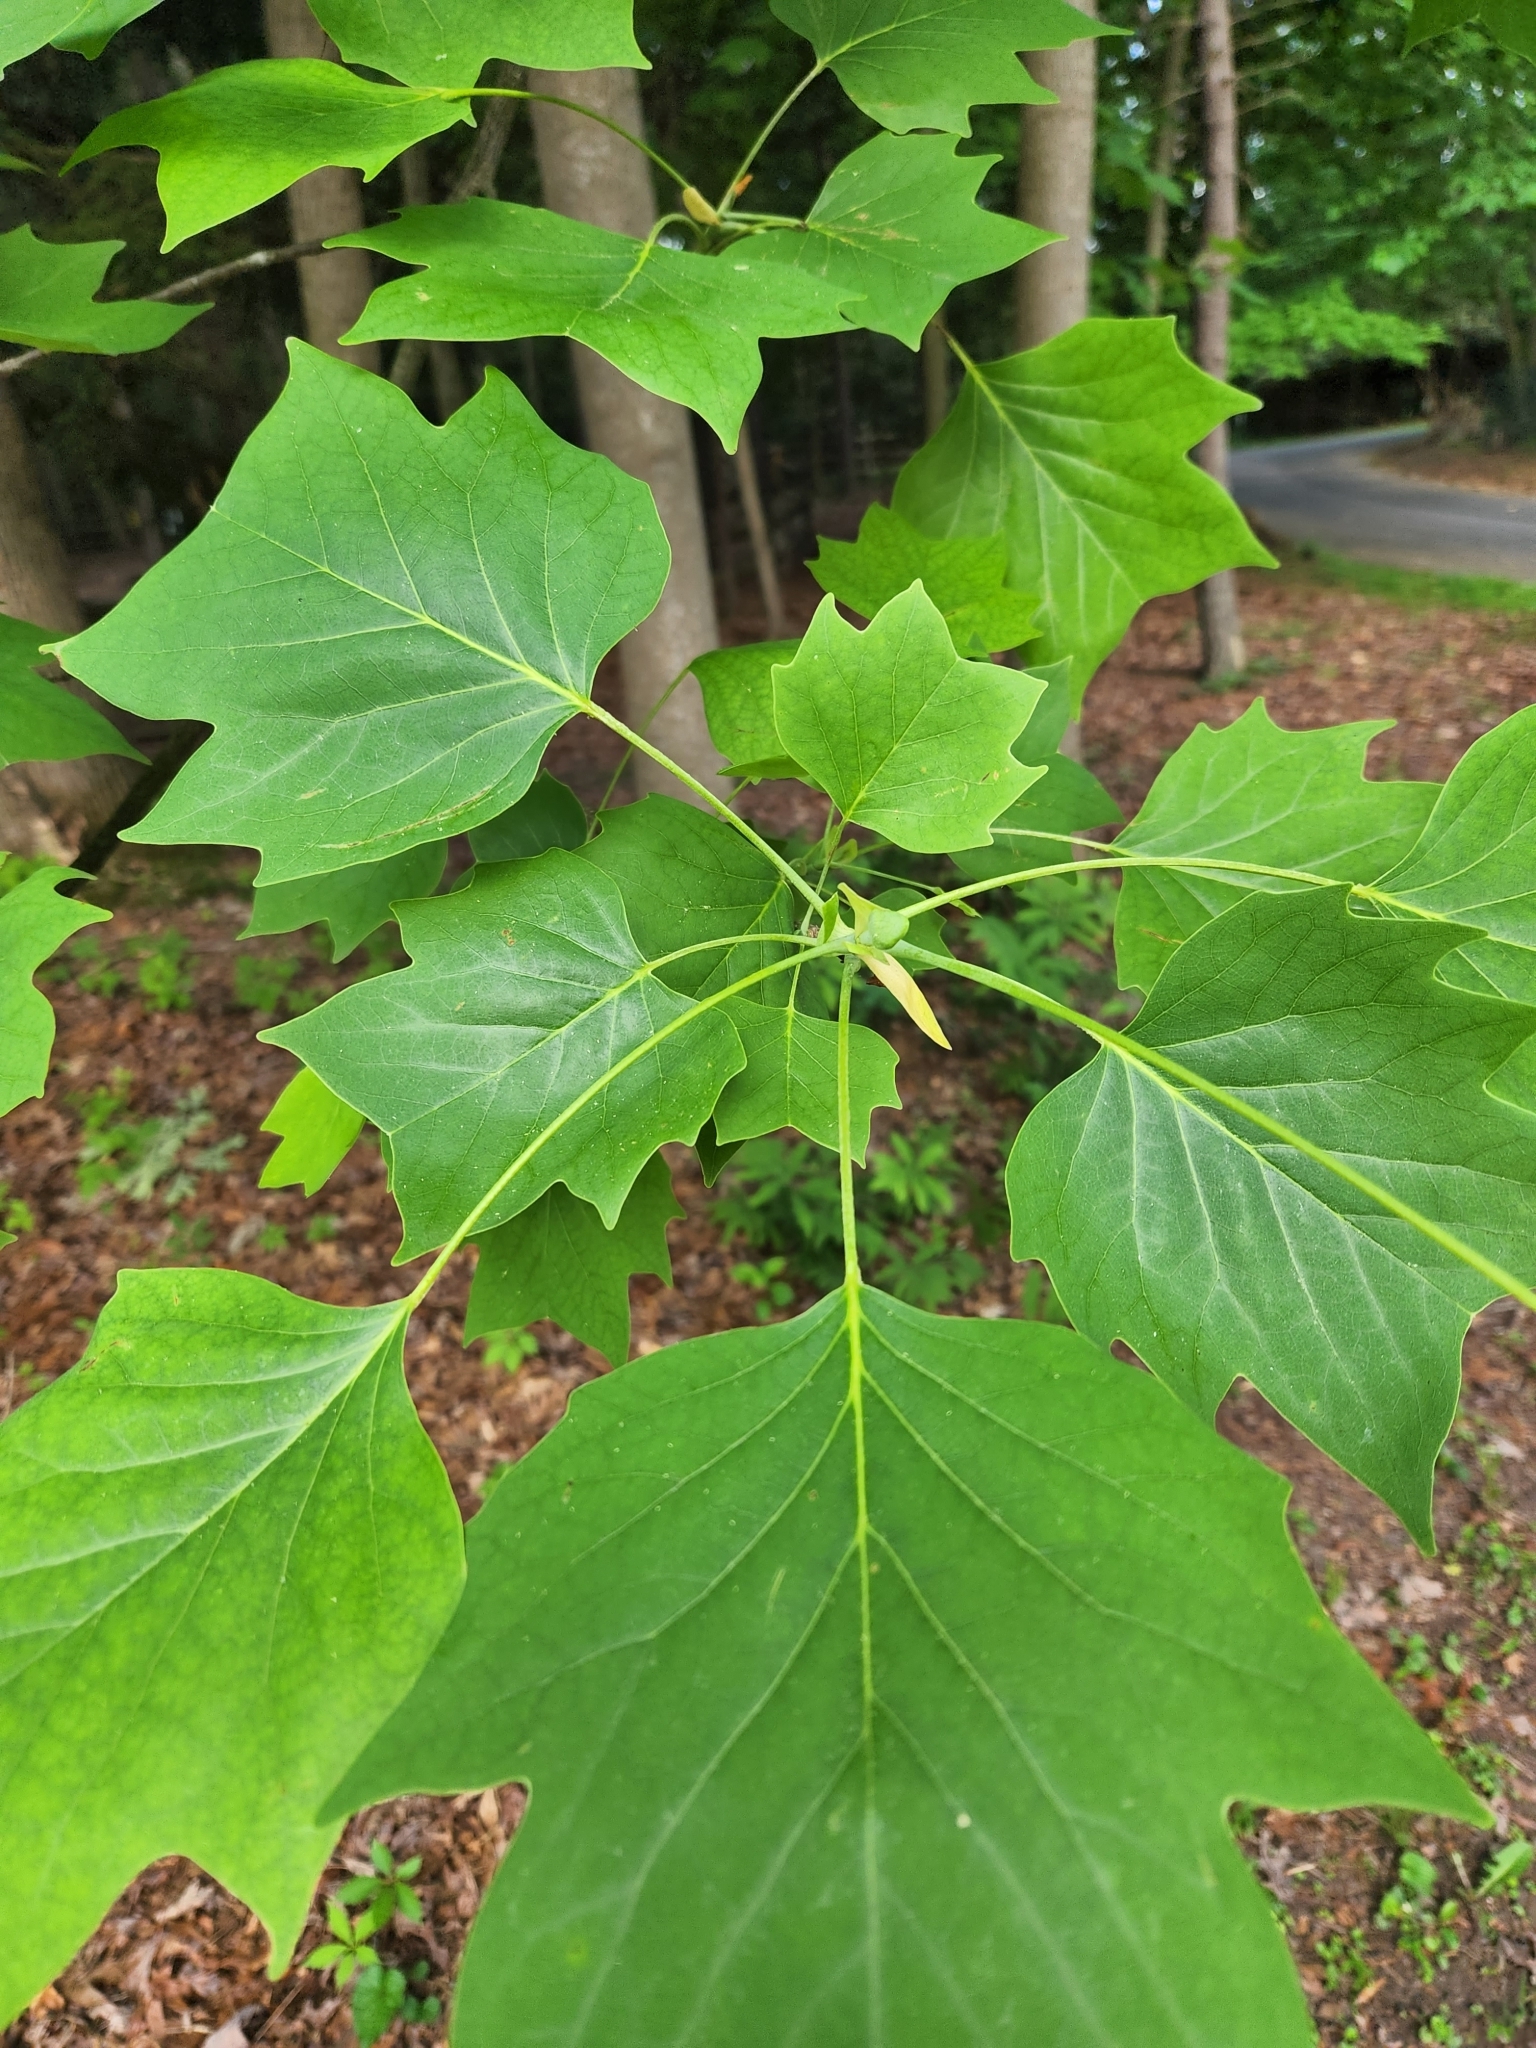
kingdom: Plantae
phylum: Tracheophyta
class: Magnoliopsida
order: Magnoliales
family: Magnoliaceae
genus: Liriodendron
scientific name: Liriodendron tulipifera
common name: Tulip tree
